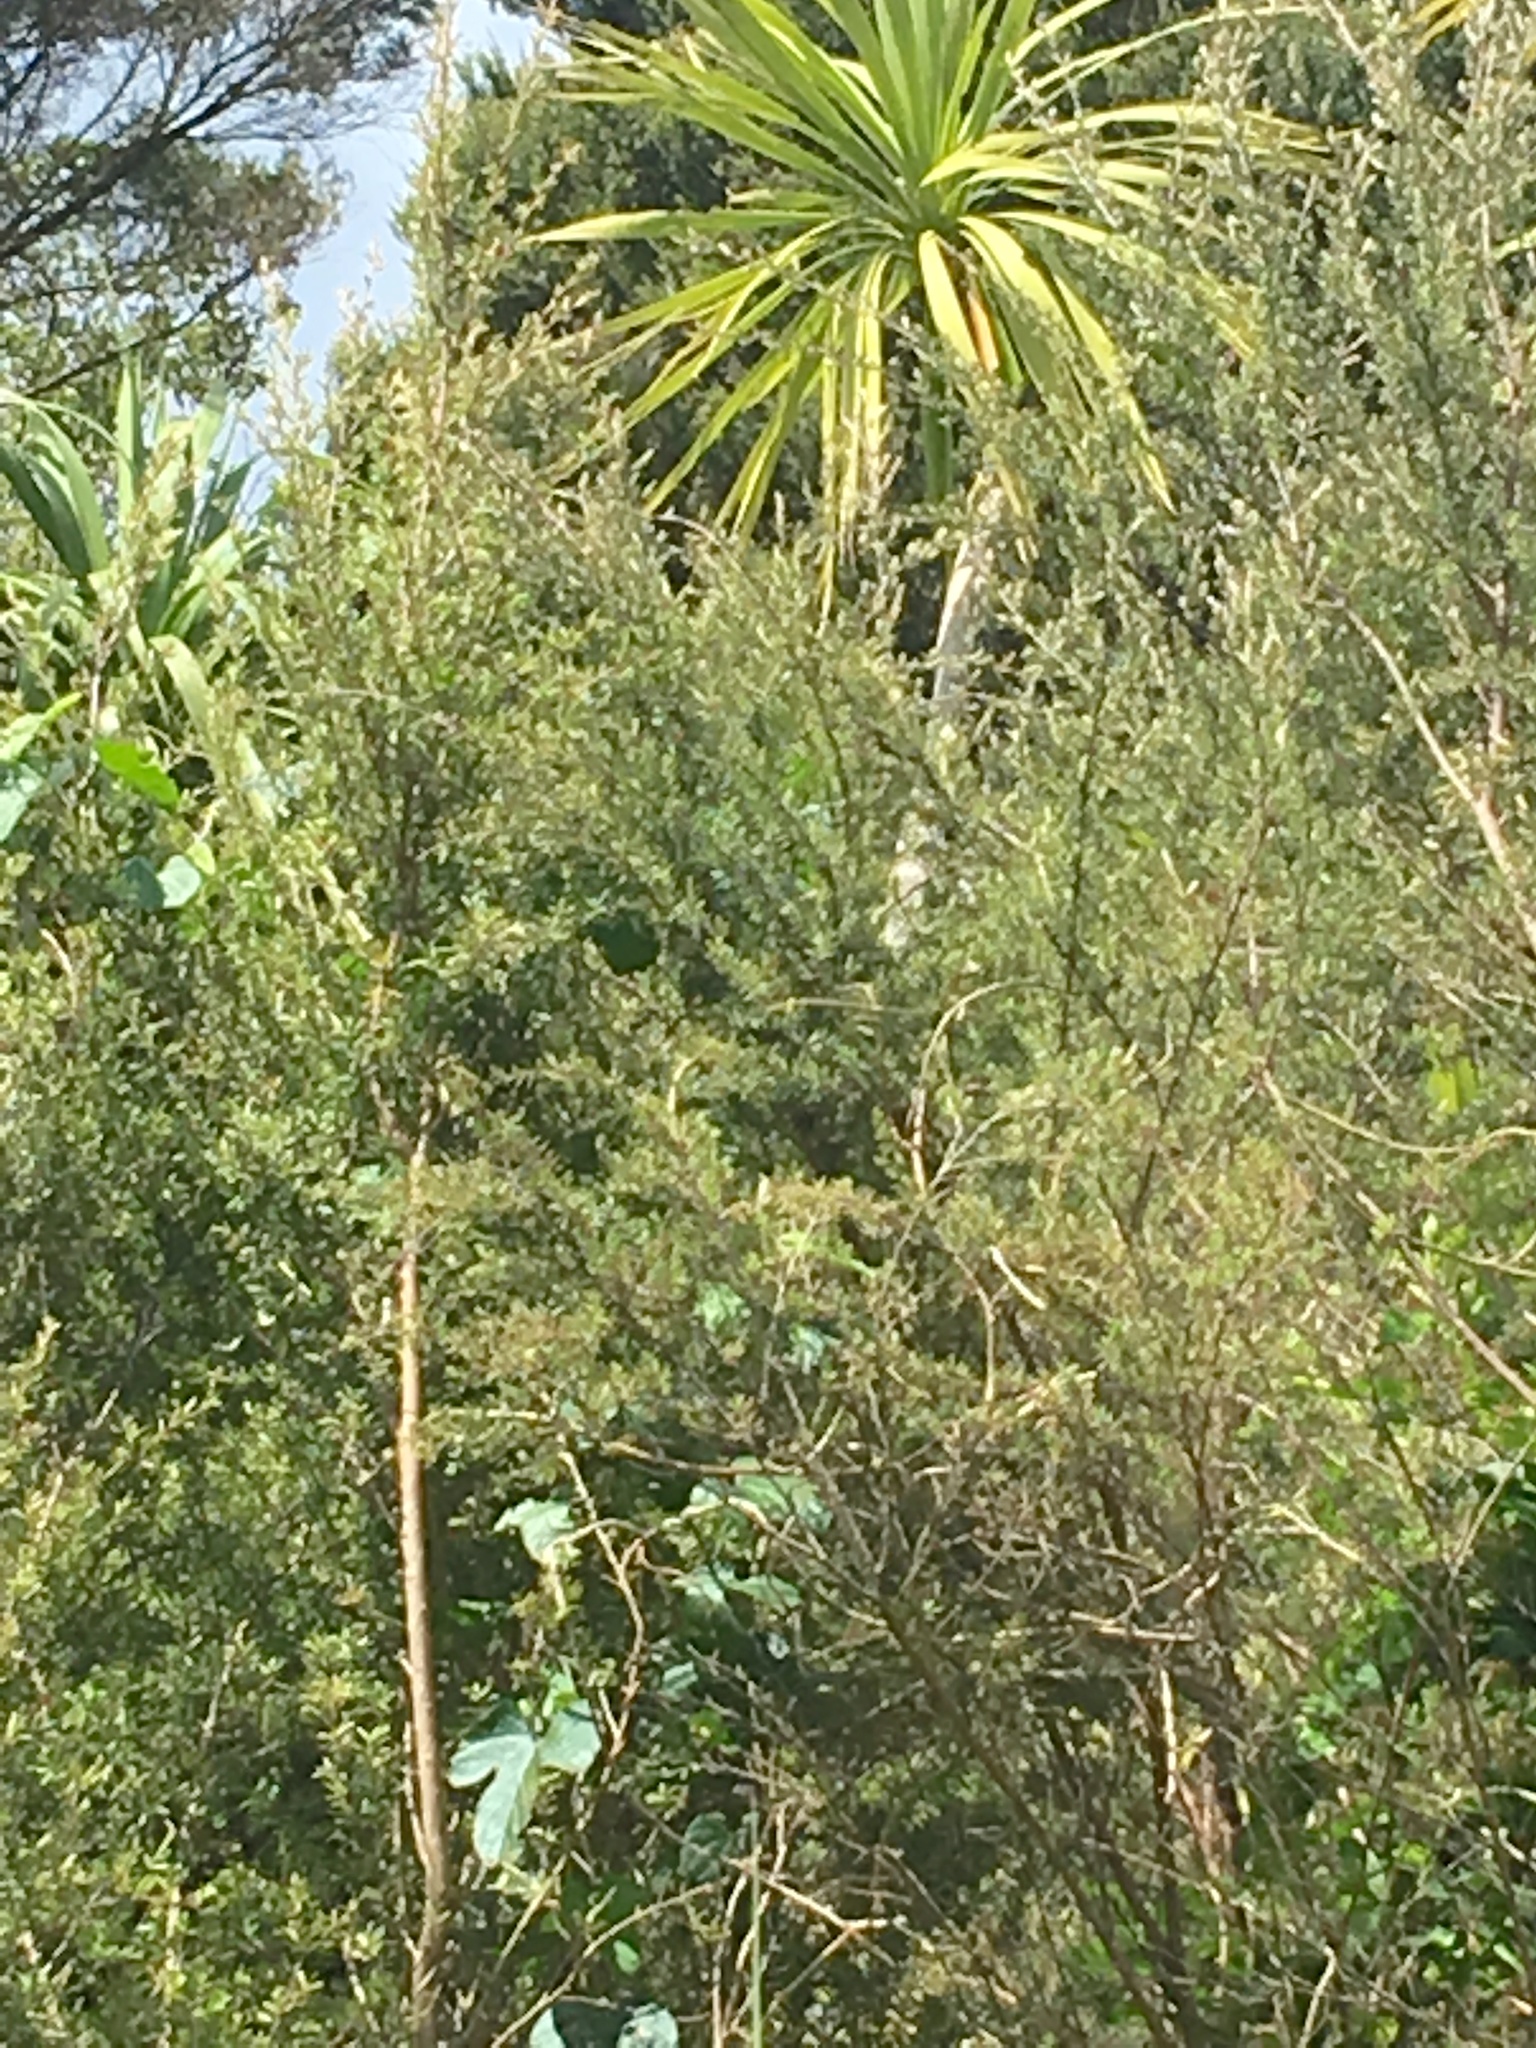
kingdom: Plantae
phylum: Tracheophyta
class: Magnoliopsida
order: Solanales
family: Convolvulaceae
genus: Ipomoea
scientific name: Ipomoea indica
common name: Blue dawnflower
